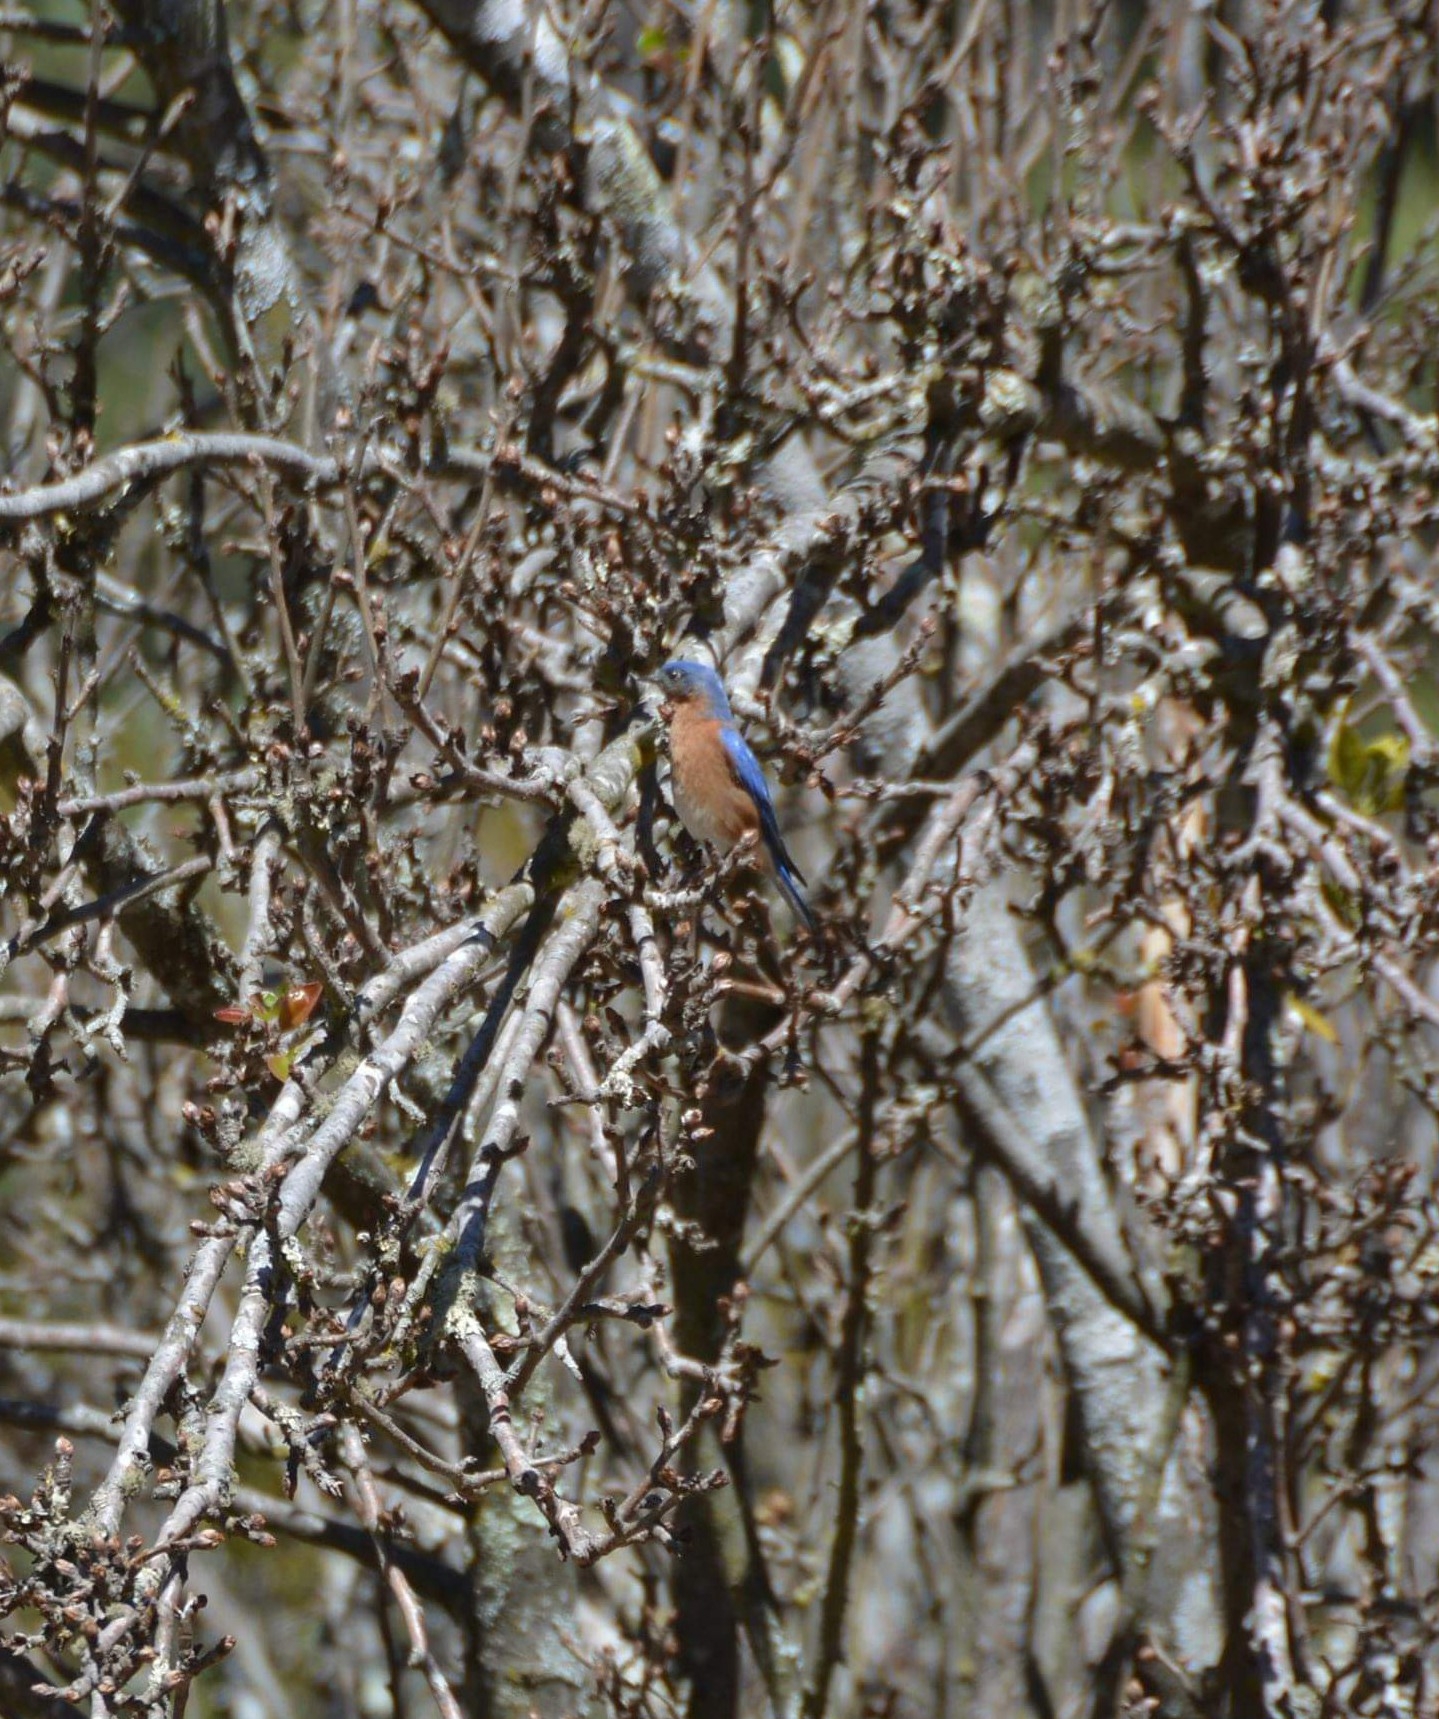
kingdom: Animalia
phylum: Chordata
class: Aves
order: Passeriformes
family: Turdidae
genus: Sialia
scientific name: Sialia sialis
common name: Eastern bluebird
